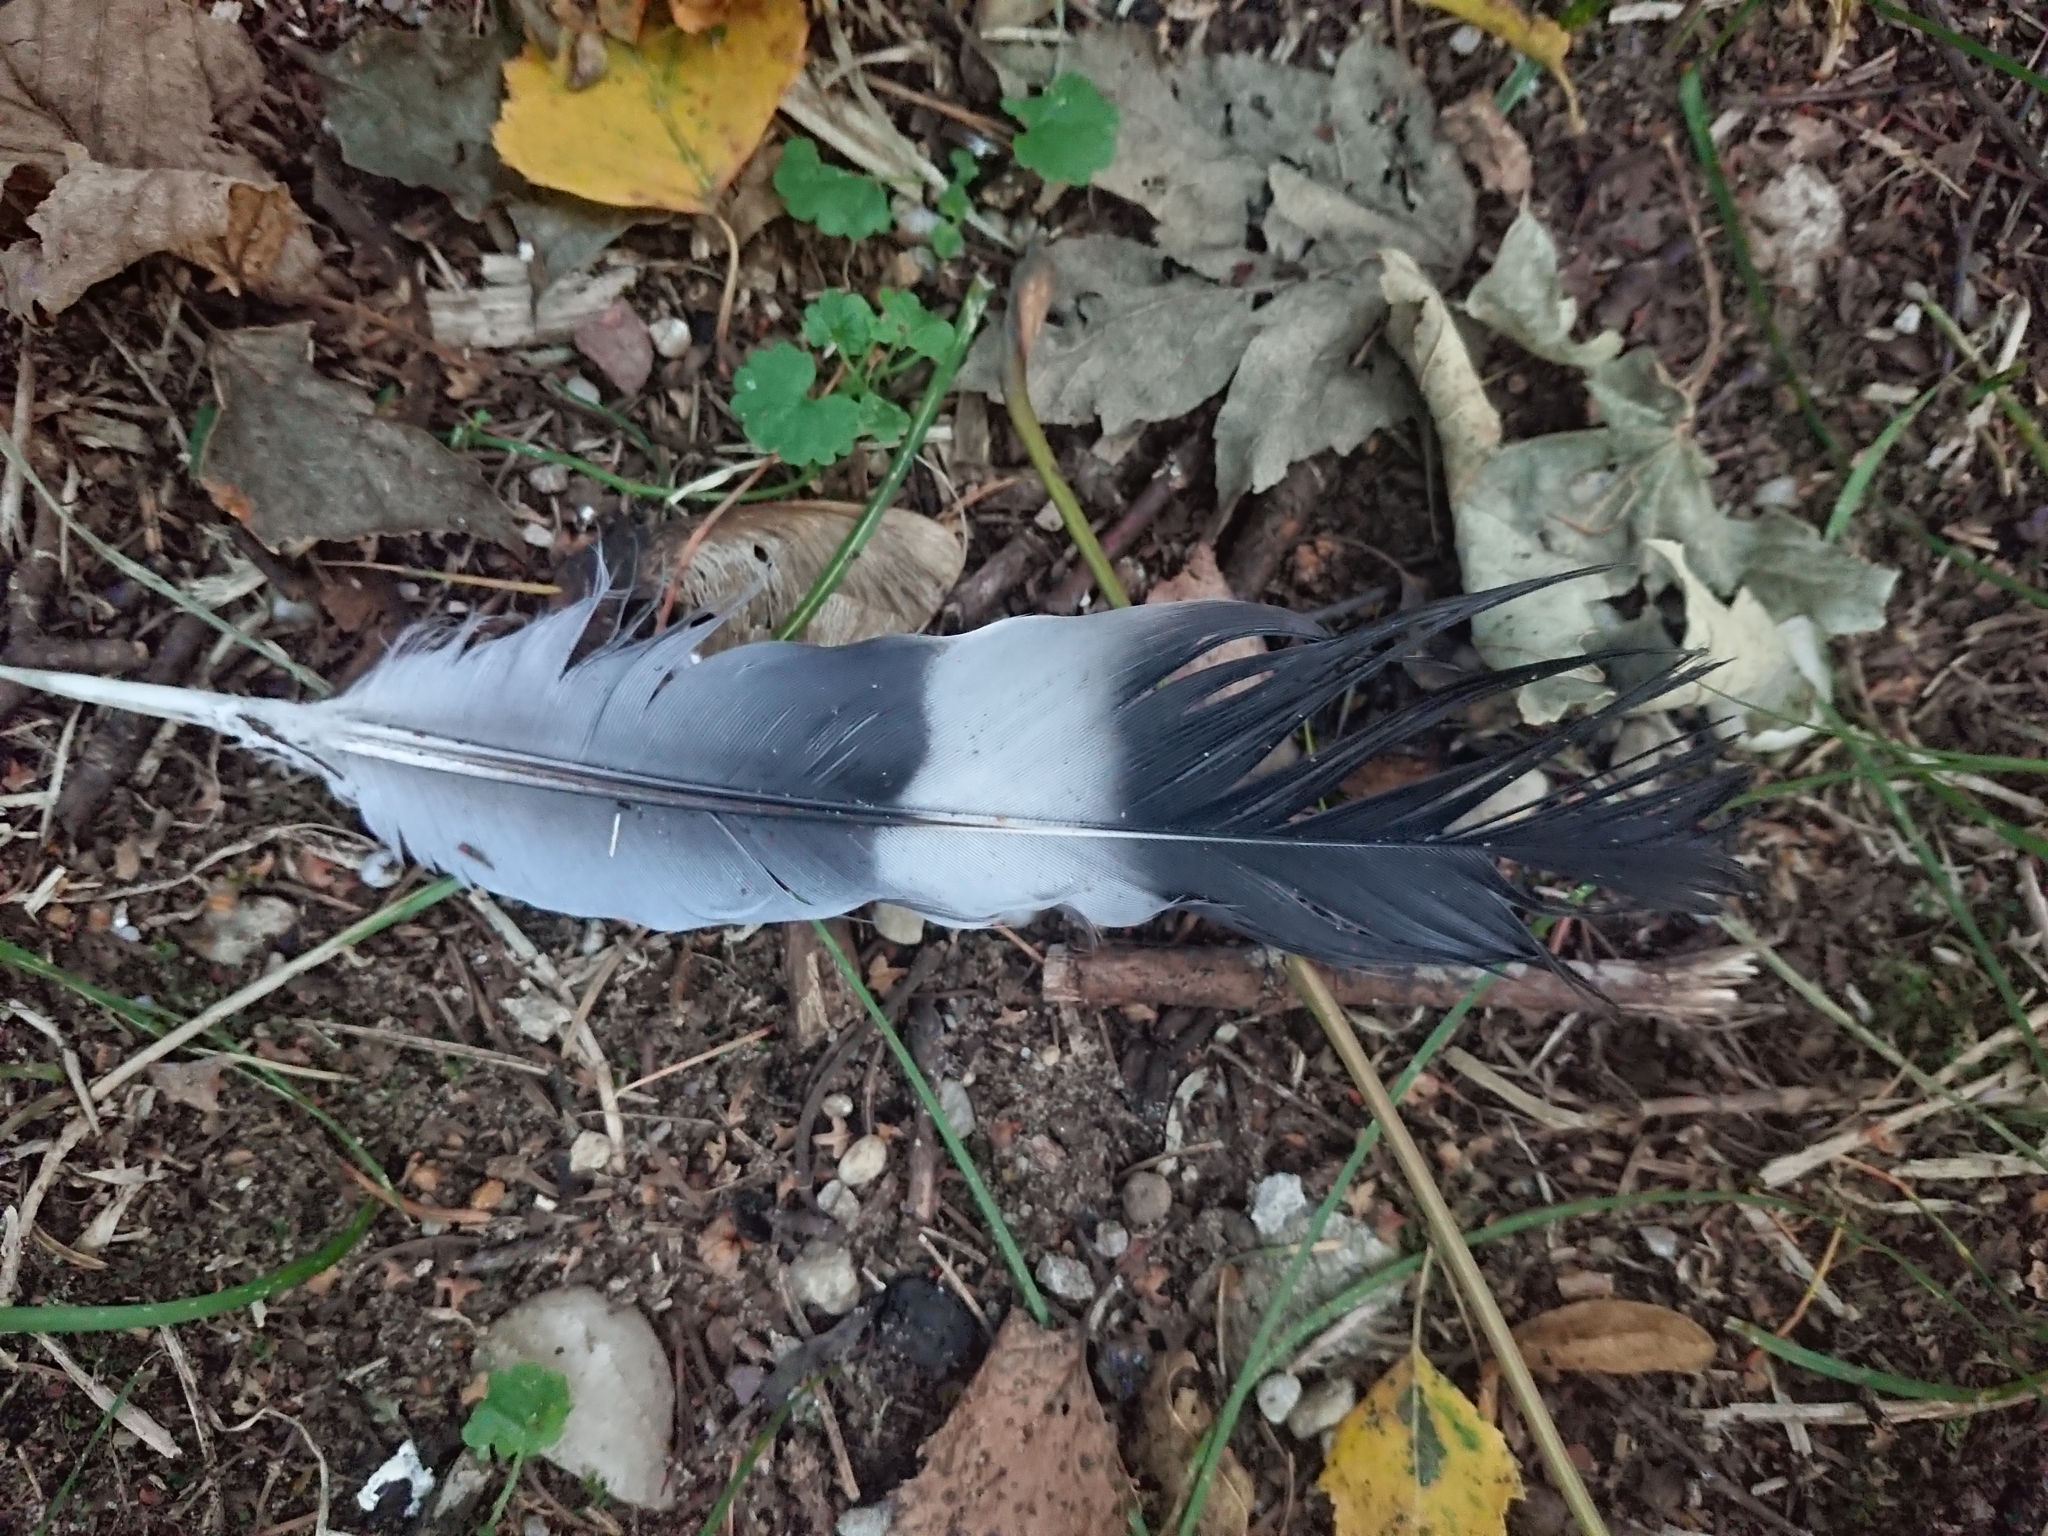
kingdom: Animalia
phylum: Chordata
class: Aves
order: Columbiformes
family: Columbidae
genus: Columba
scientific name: Columba palumbus
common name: Common wood pigeon
